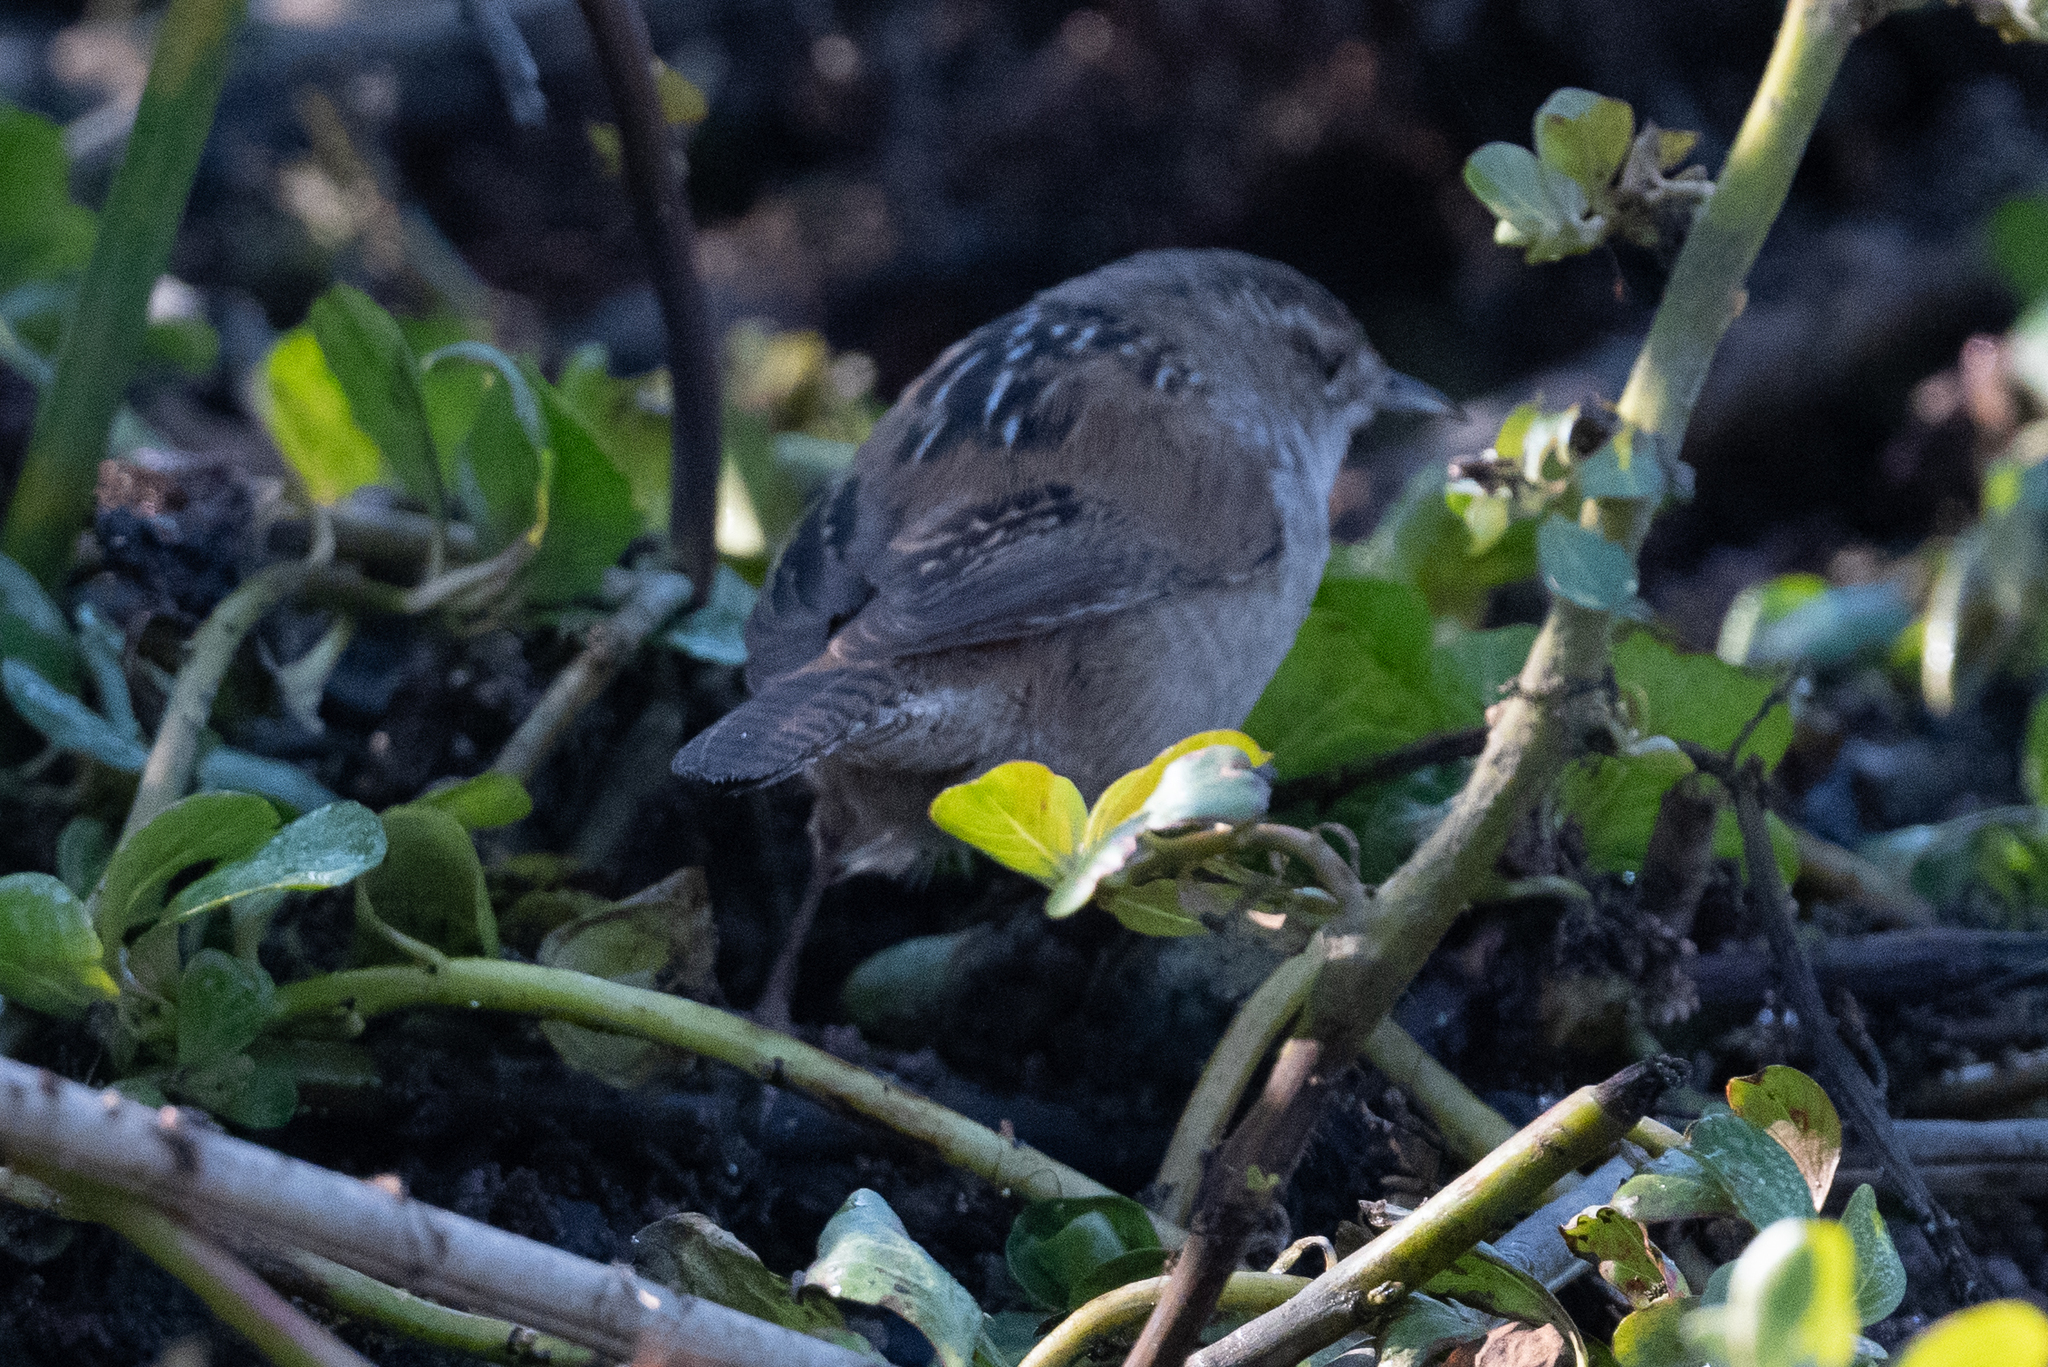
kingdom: Animalia
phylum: Chordata
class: Aves
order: Passeriformes
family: Troglodytidae
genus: Cistothorus
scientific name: Cistothorus palustris
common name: Marsh wren
